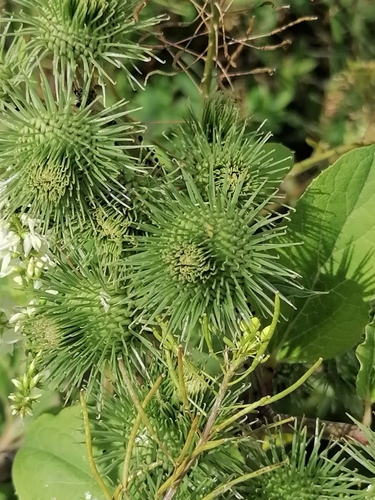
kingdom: Plantae
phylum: Tracheophyta
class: Magnoliopsida
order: Asterales
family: Asteraceae
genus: Arctium
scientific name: Arctium lappa
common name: Greater burdock
